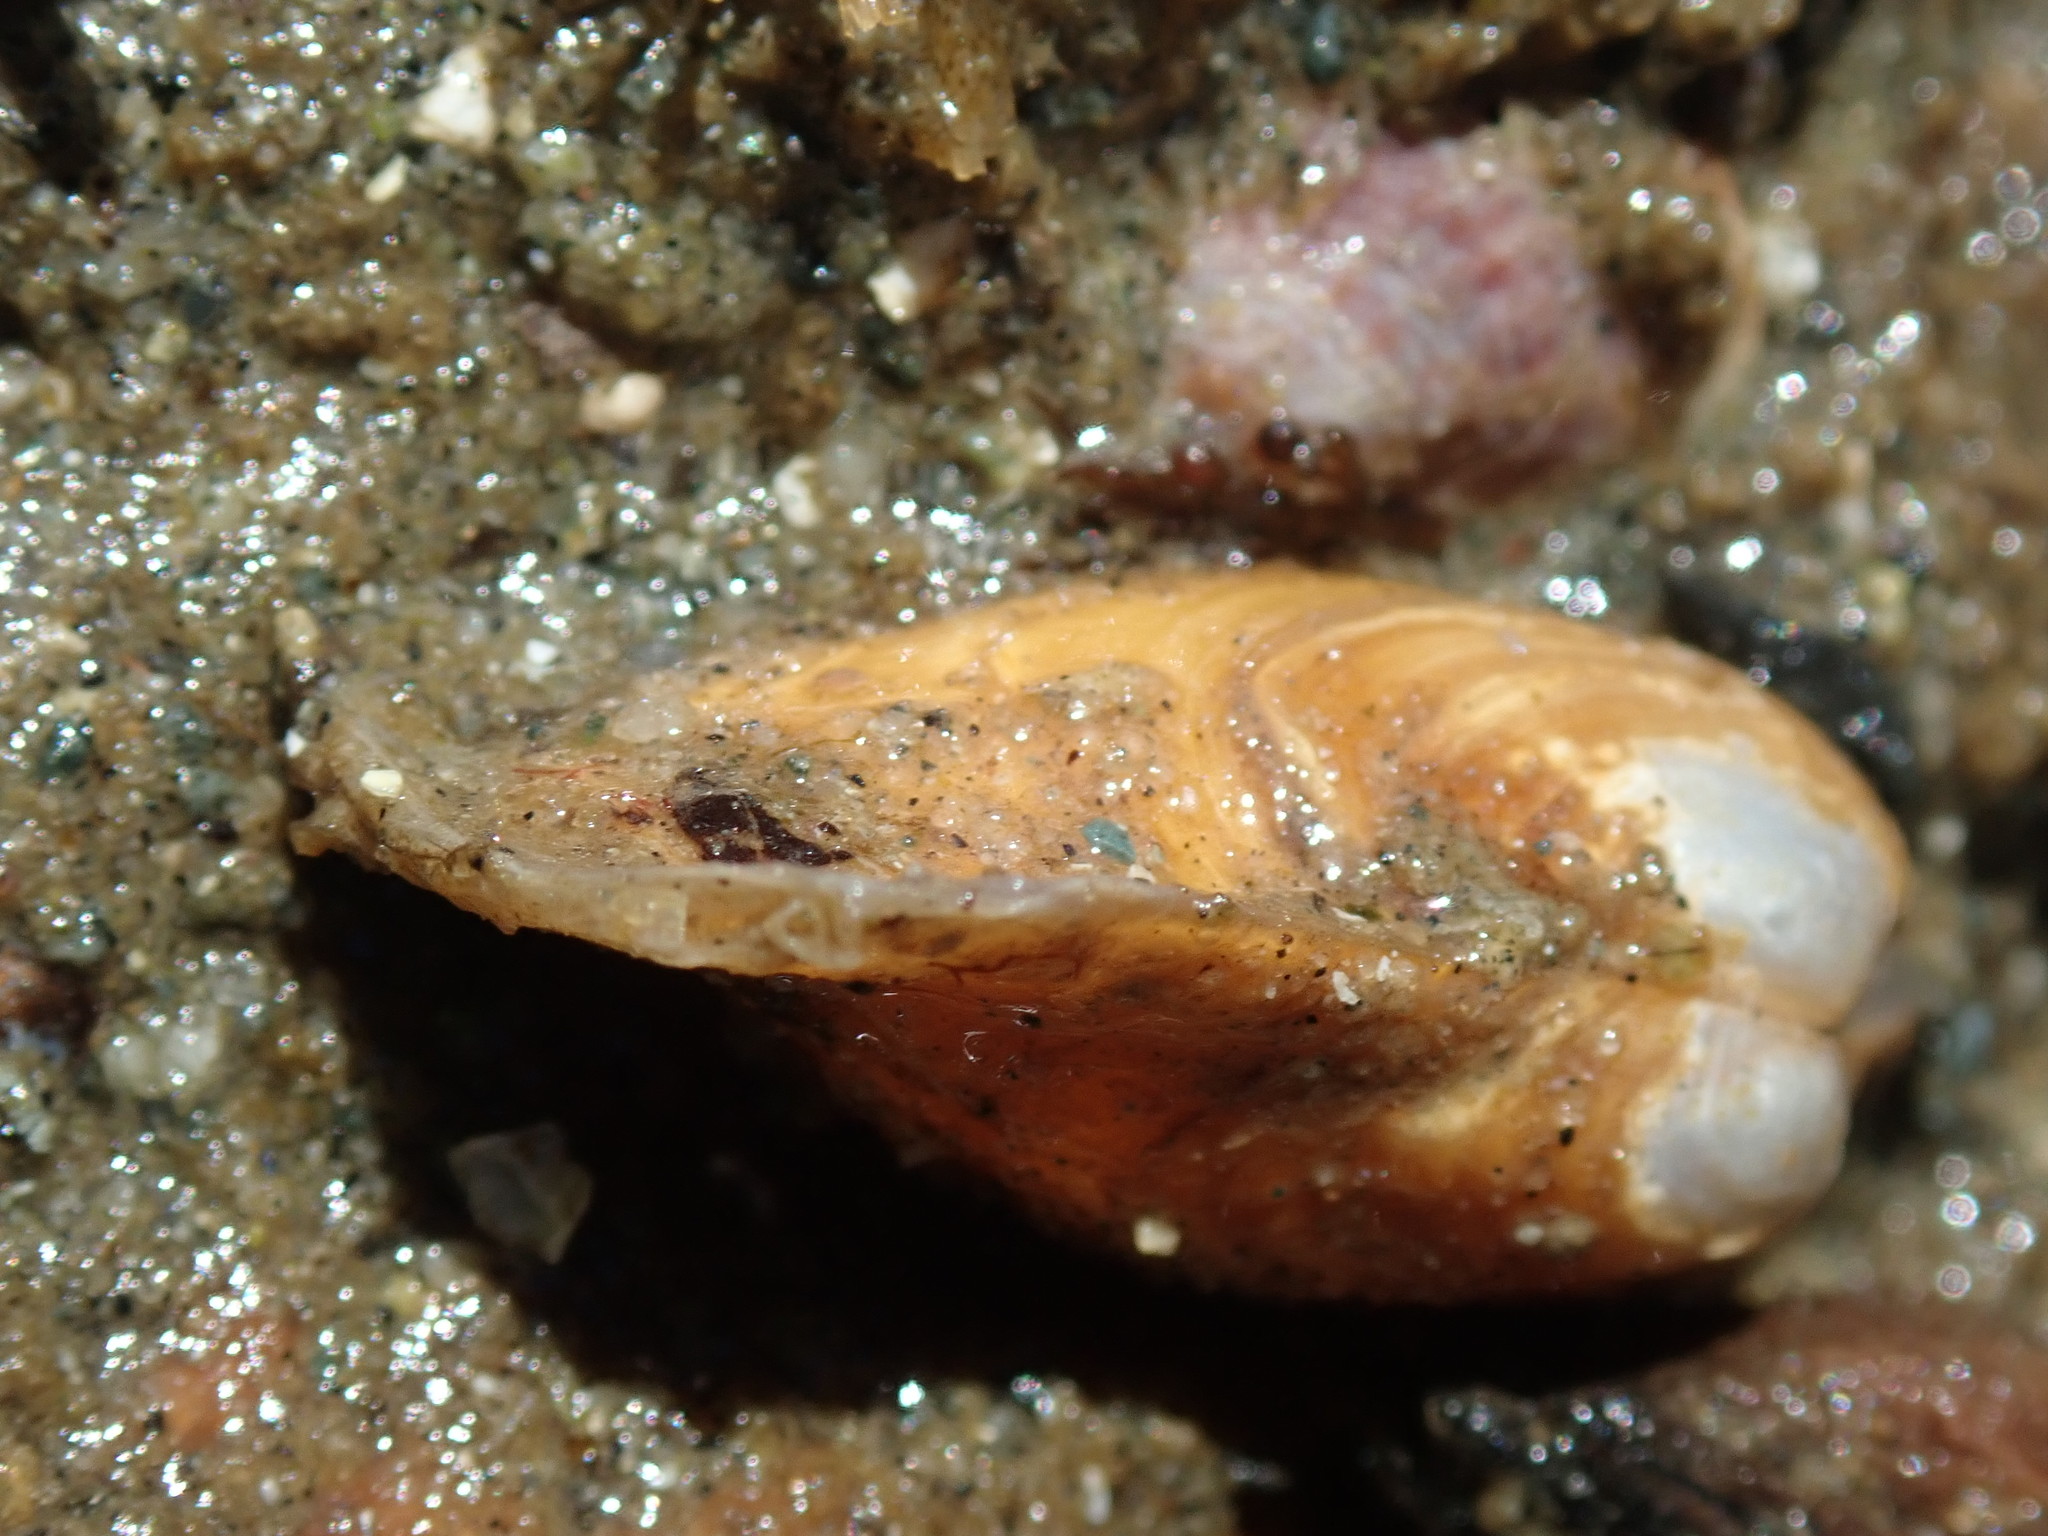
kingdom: Animalia
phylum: Mollusca
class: Bivalvia
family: Lyonsiidae
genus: Entodesma
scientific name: Entodesma navicula
